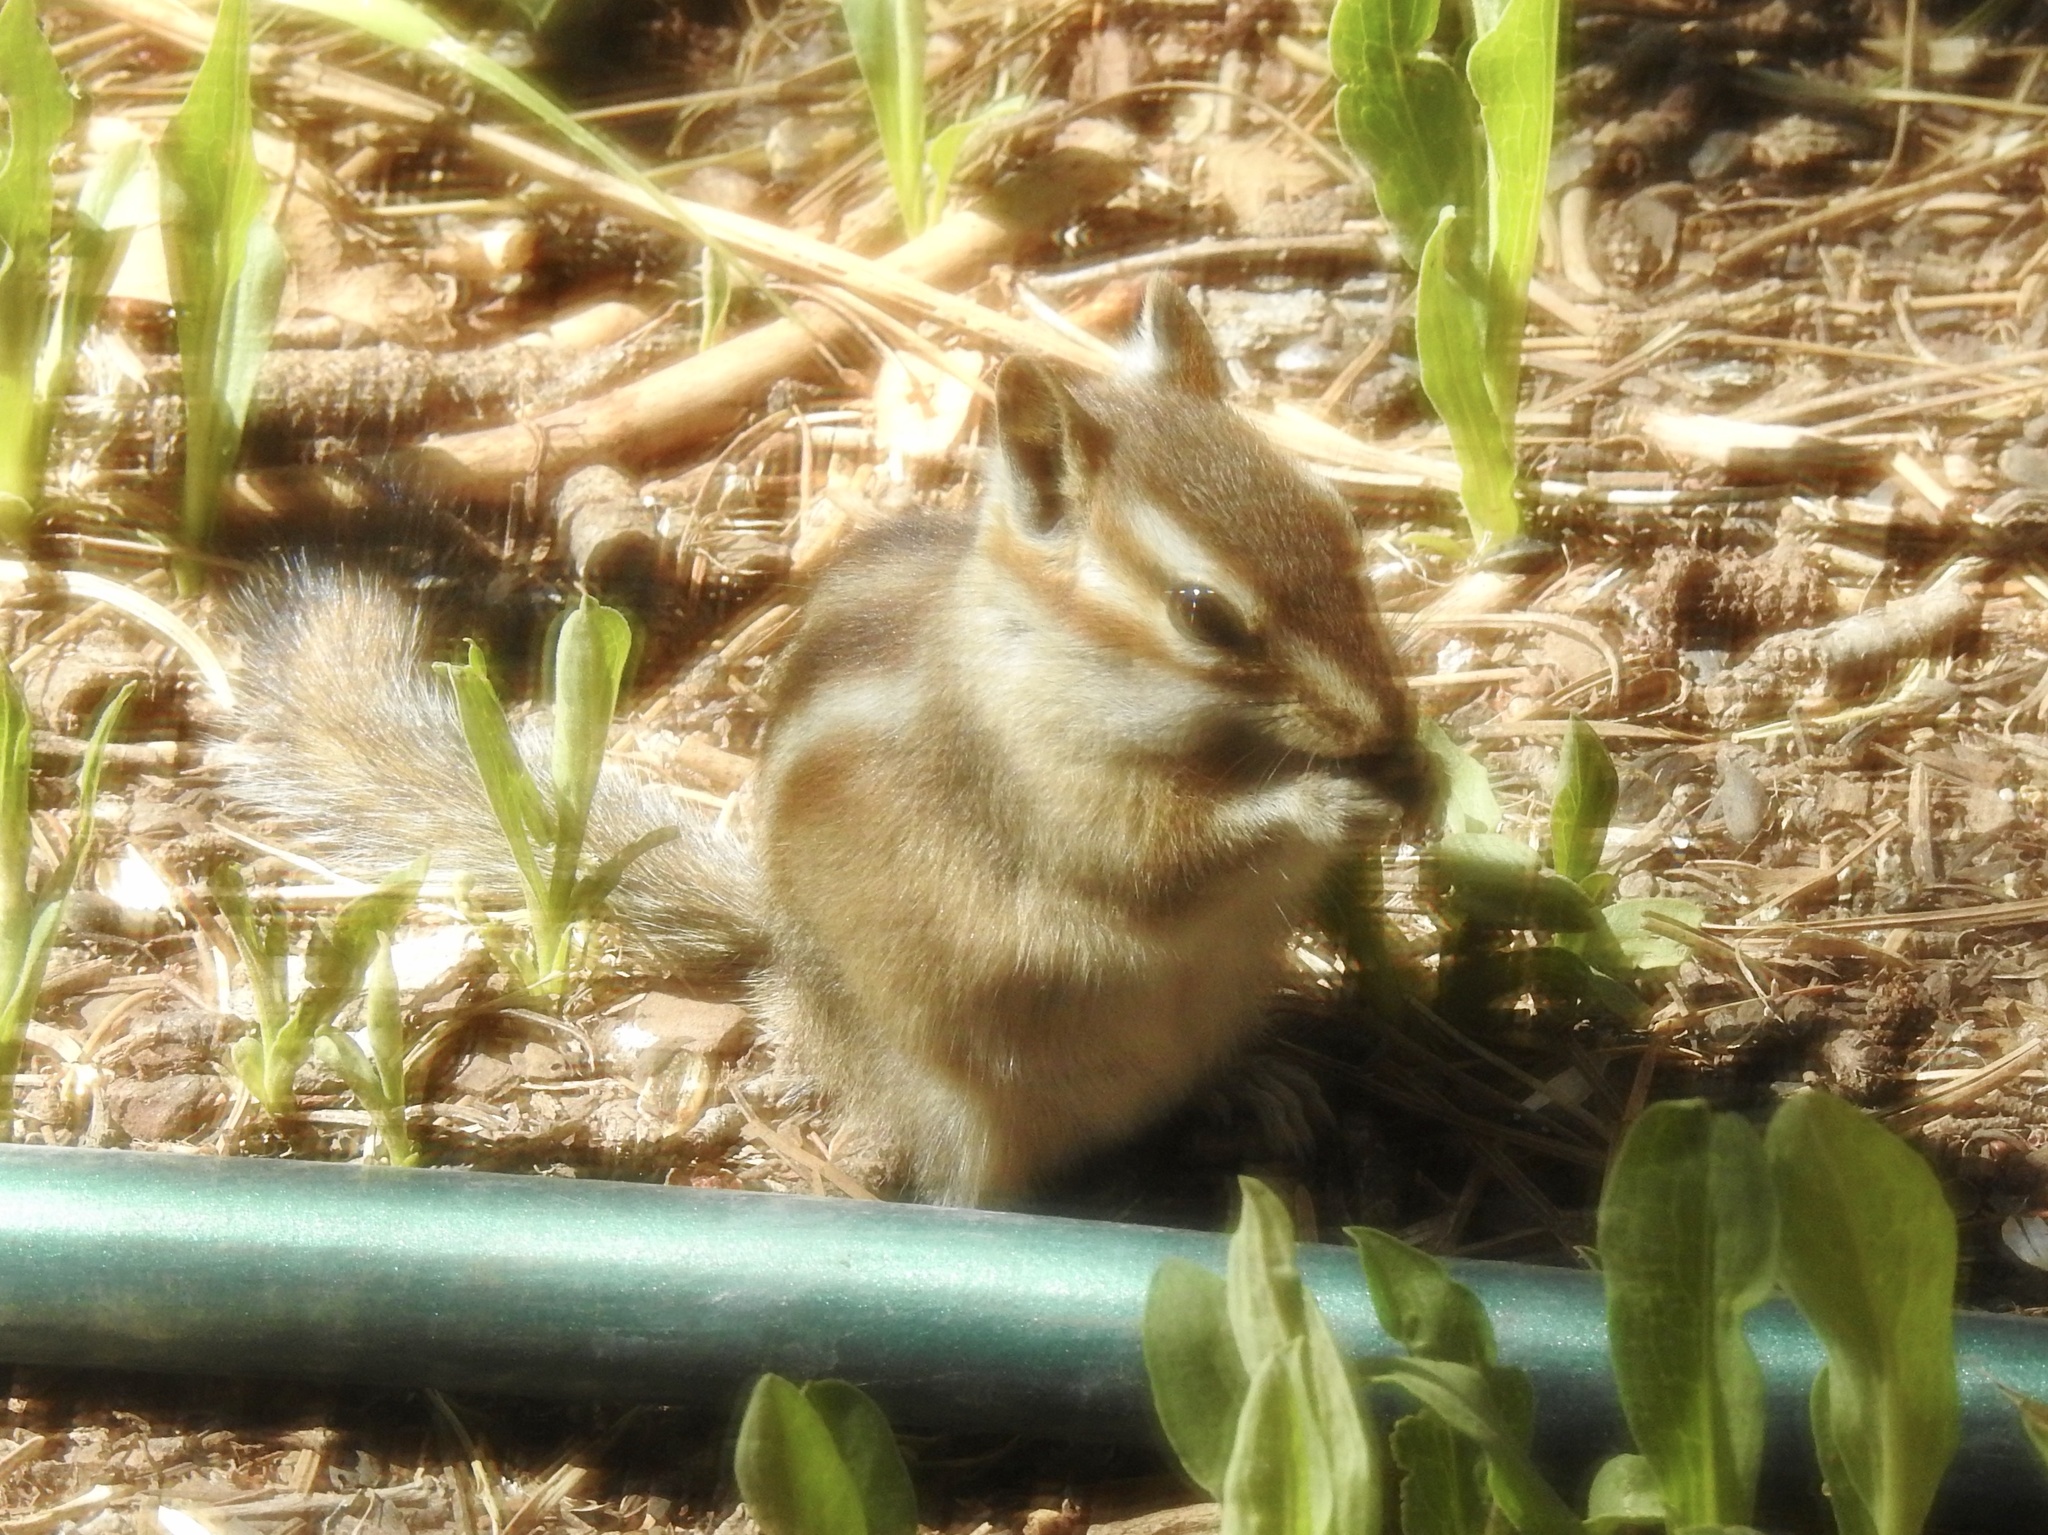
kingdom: Animalia
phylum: Chordata
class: Mammalia
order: Rodentia
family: Sciuridae
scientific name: Sciuridae
